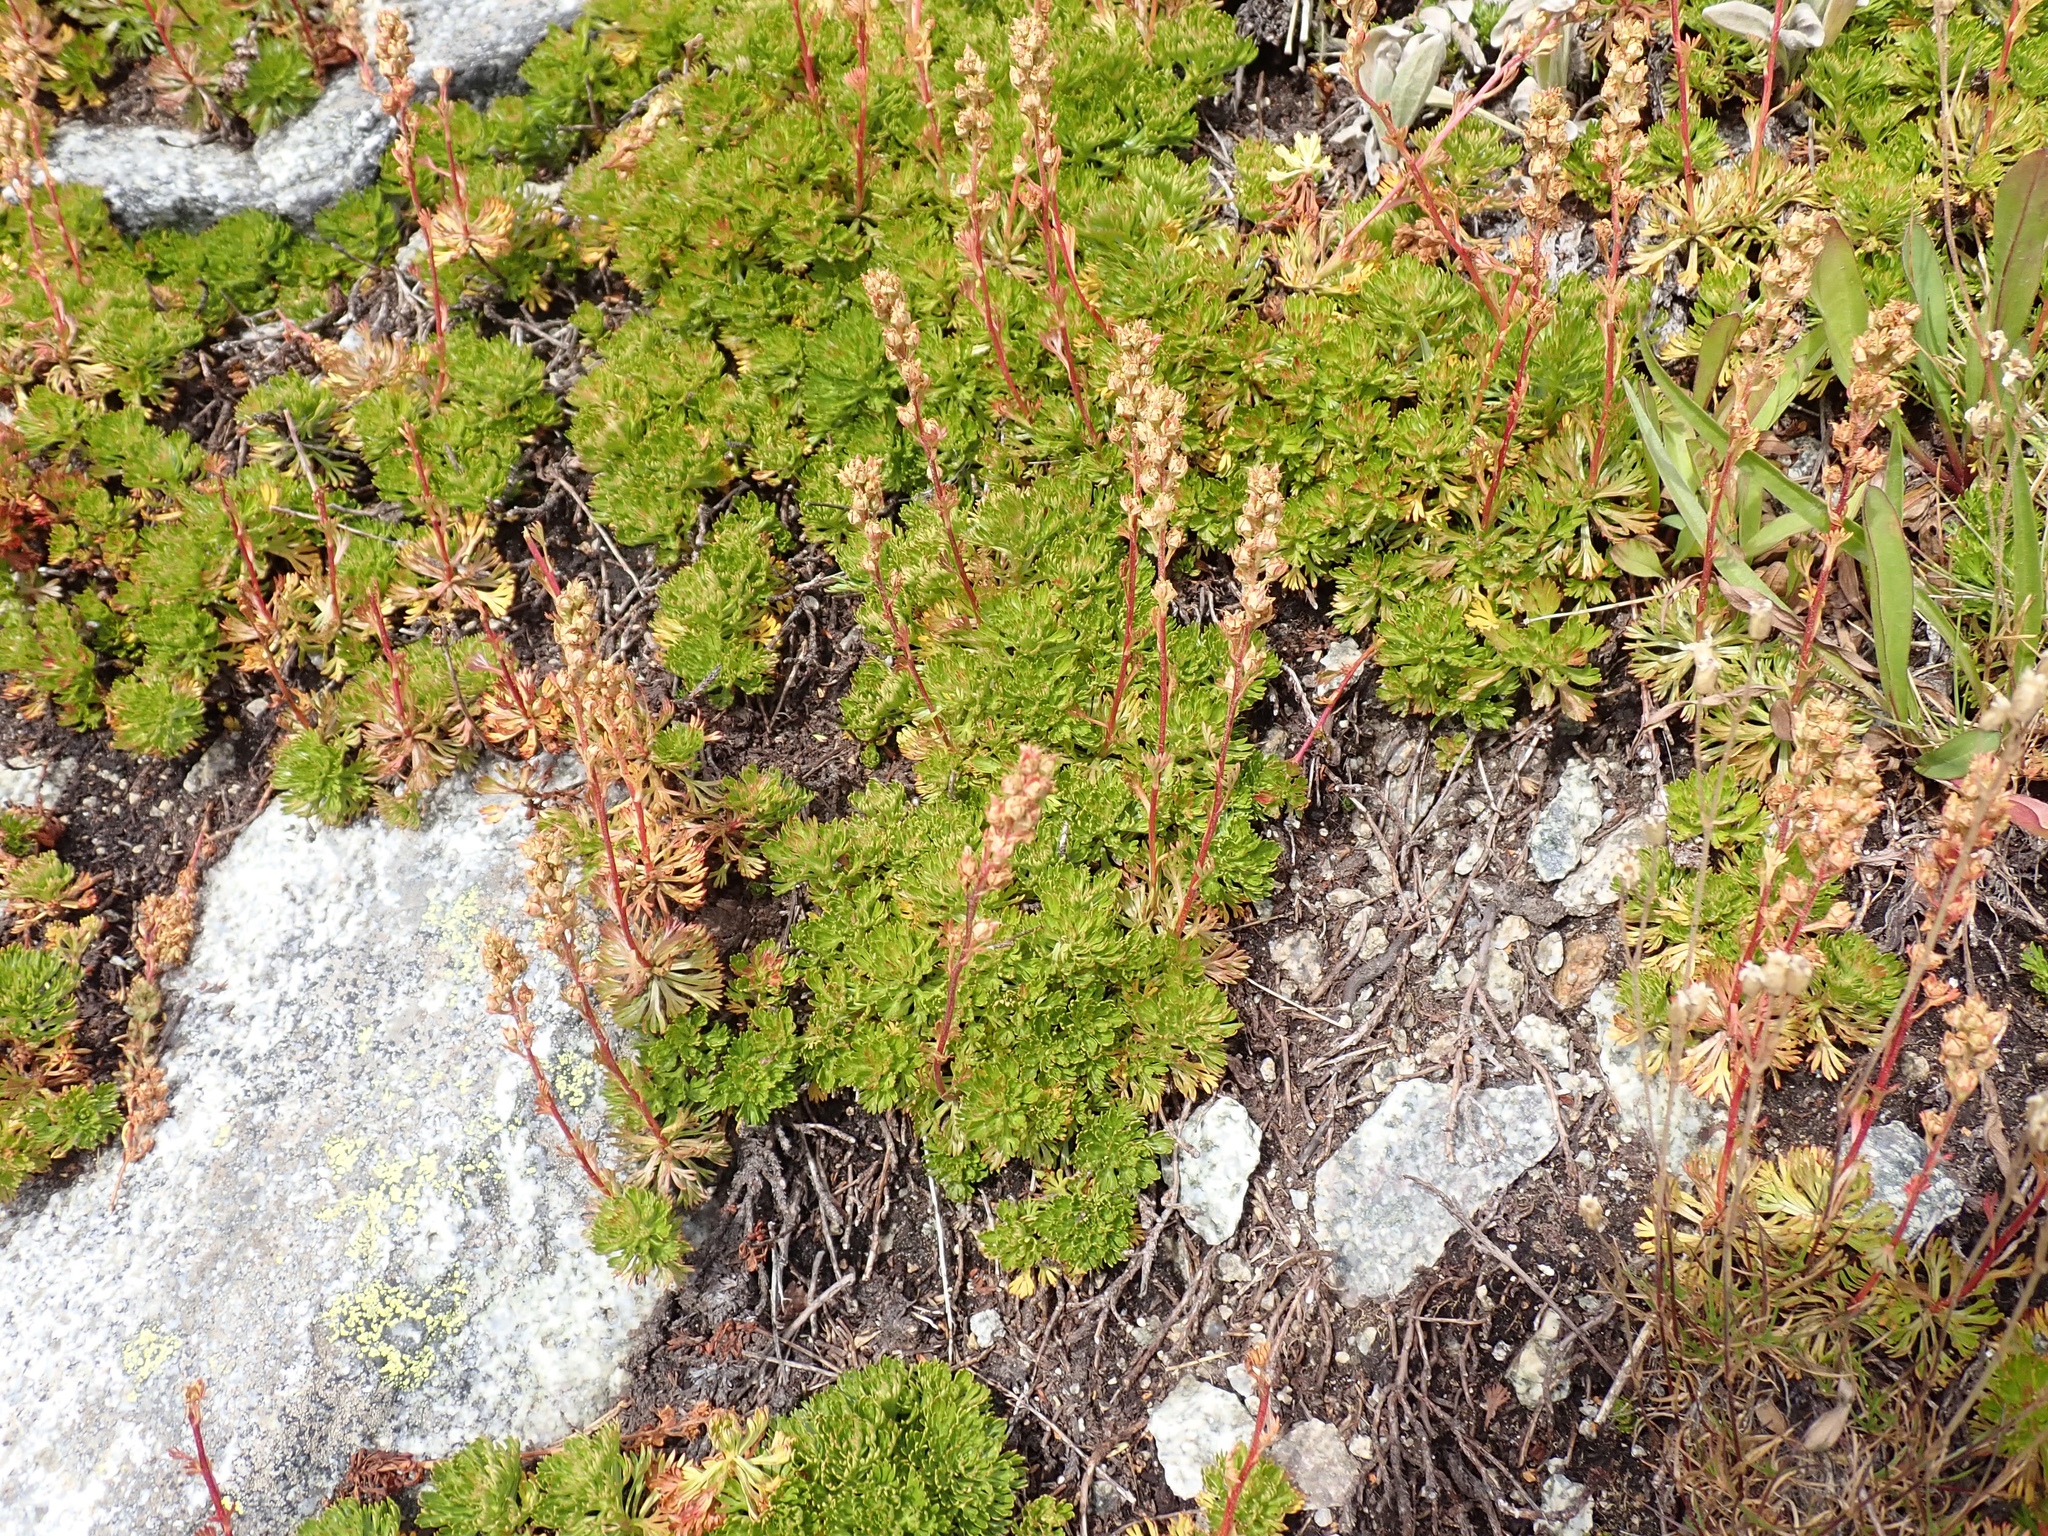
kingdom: Plantae
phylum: Tracheophyta
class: Magnoliopsida
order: Rosales
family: Rosaceae
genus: Luetkea
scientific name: Luetkea pectinata
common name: Partridgefoot
